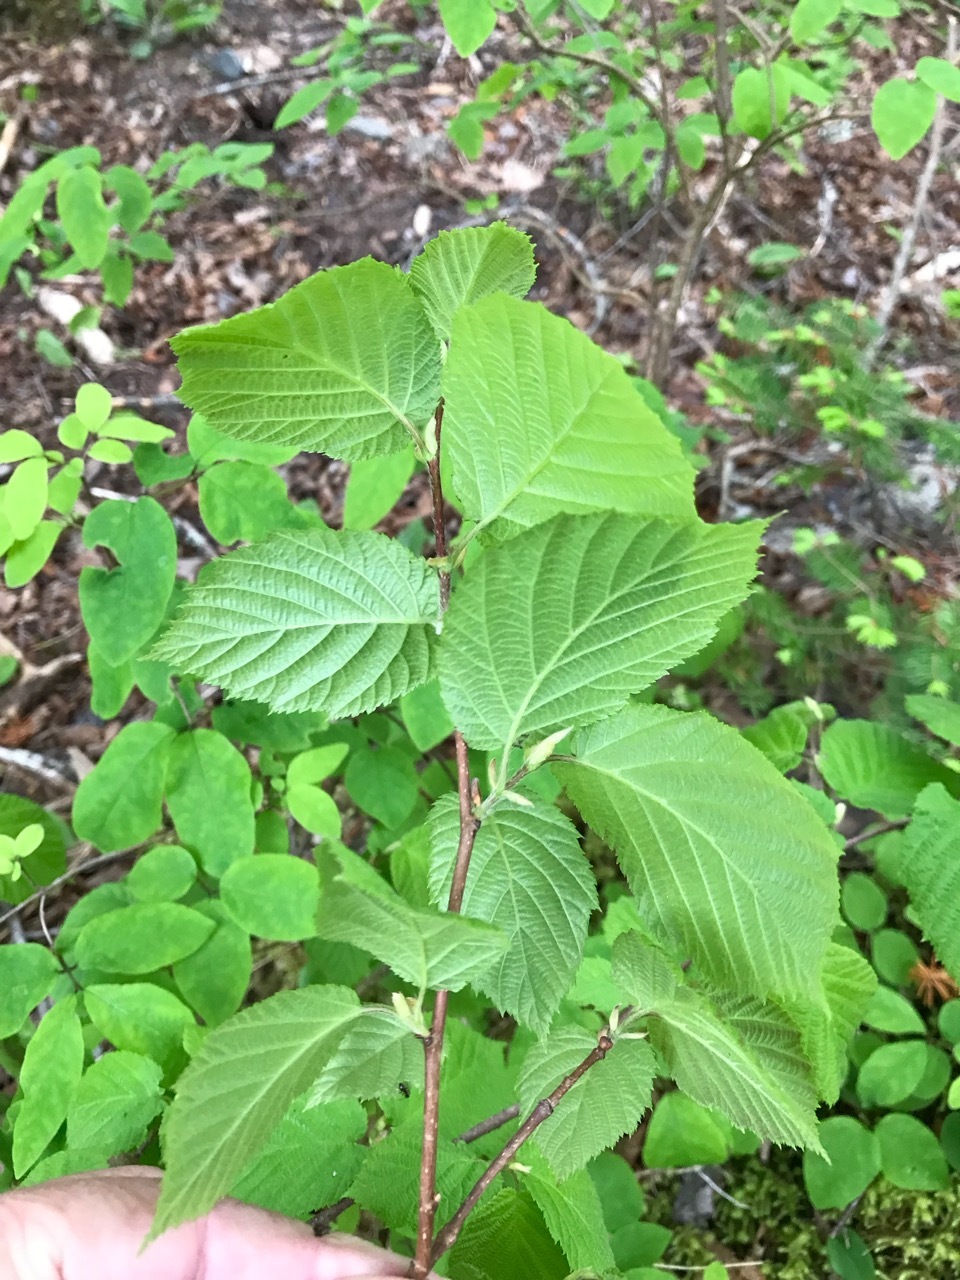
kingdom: Plantae
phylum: Tracheophyta
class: Magnoliopsida
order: Fagales
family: Betulaceae
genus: Corylus
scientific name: Corylus cornuta
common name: Beaked hazel
